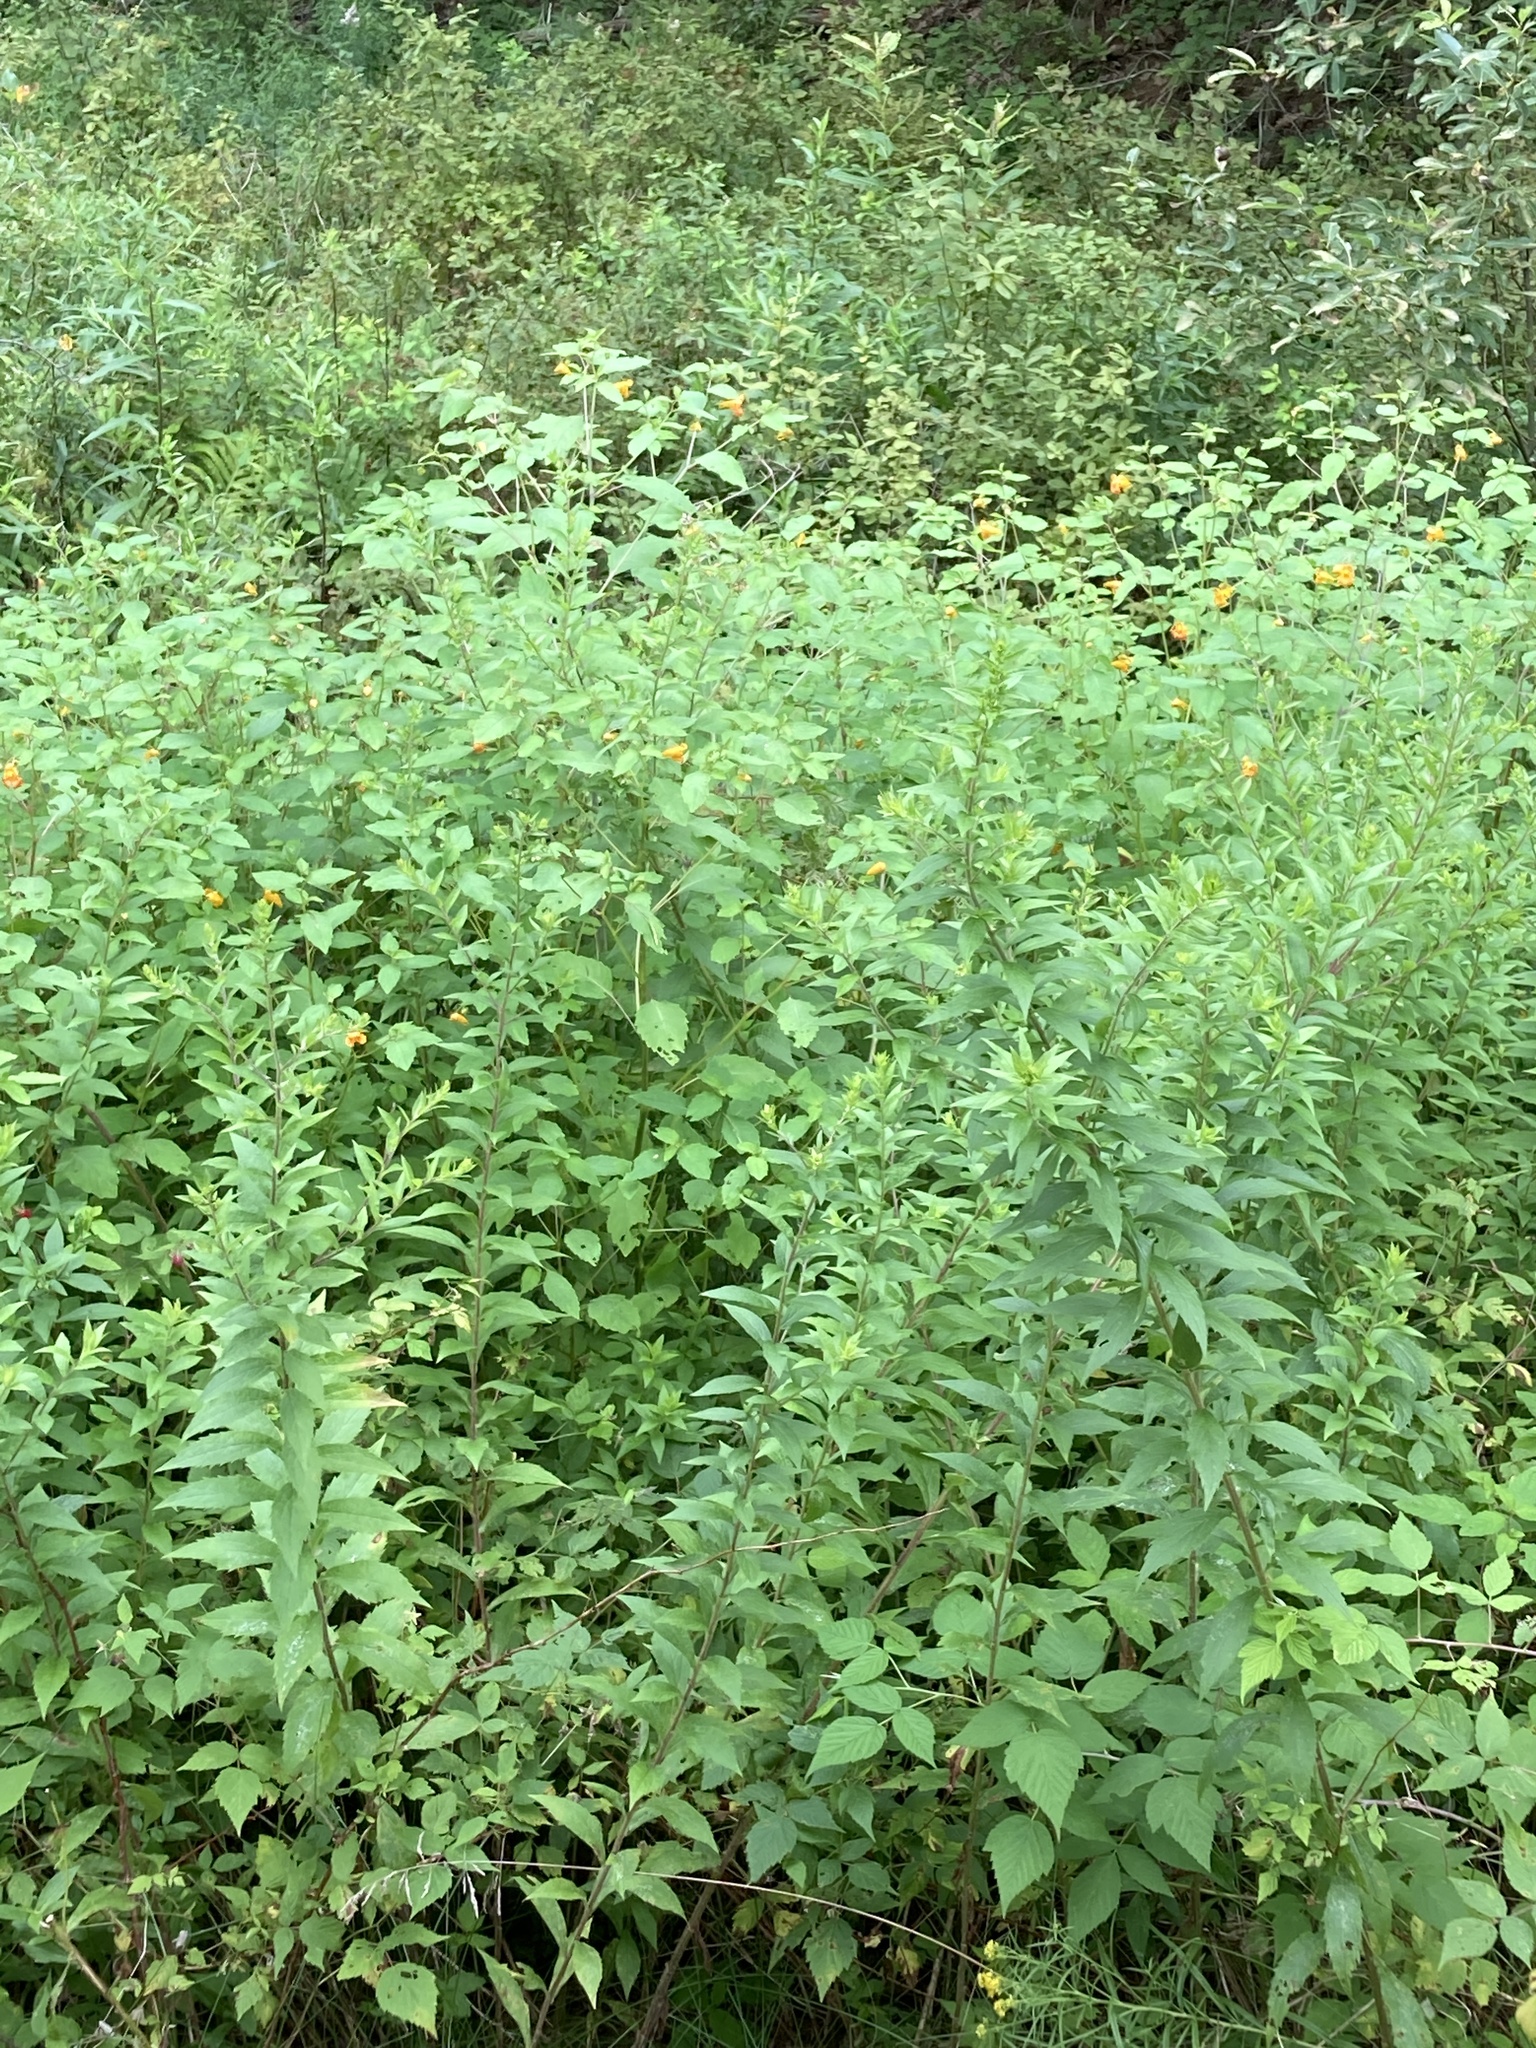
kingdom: Plantae
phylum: Tracheophyta
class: Magnoliopsida
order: Ericales
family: Balsaminaceae
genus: Impatiens
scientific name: Impatiens capensis
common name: Orange balsam
